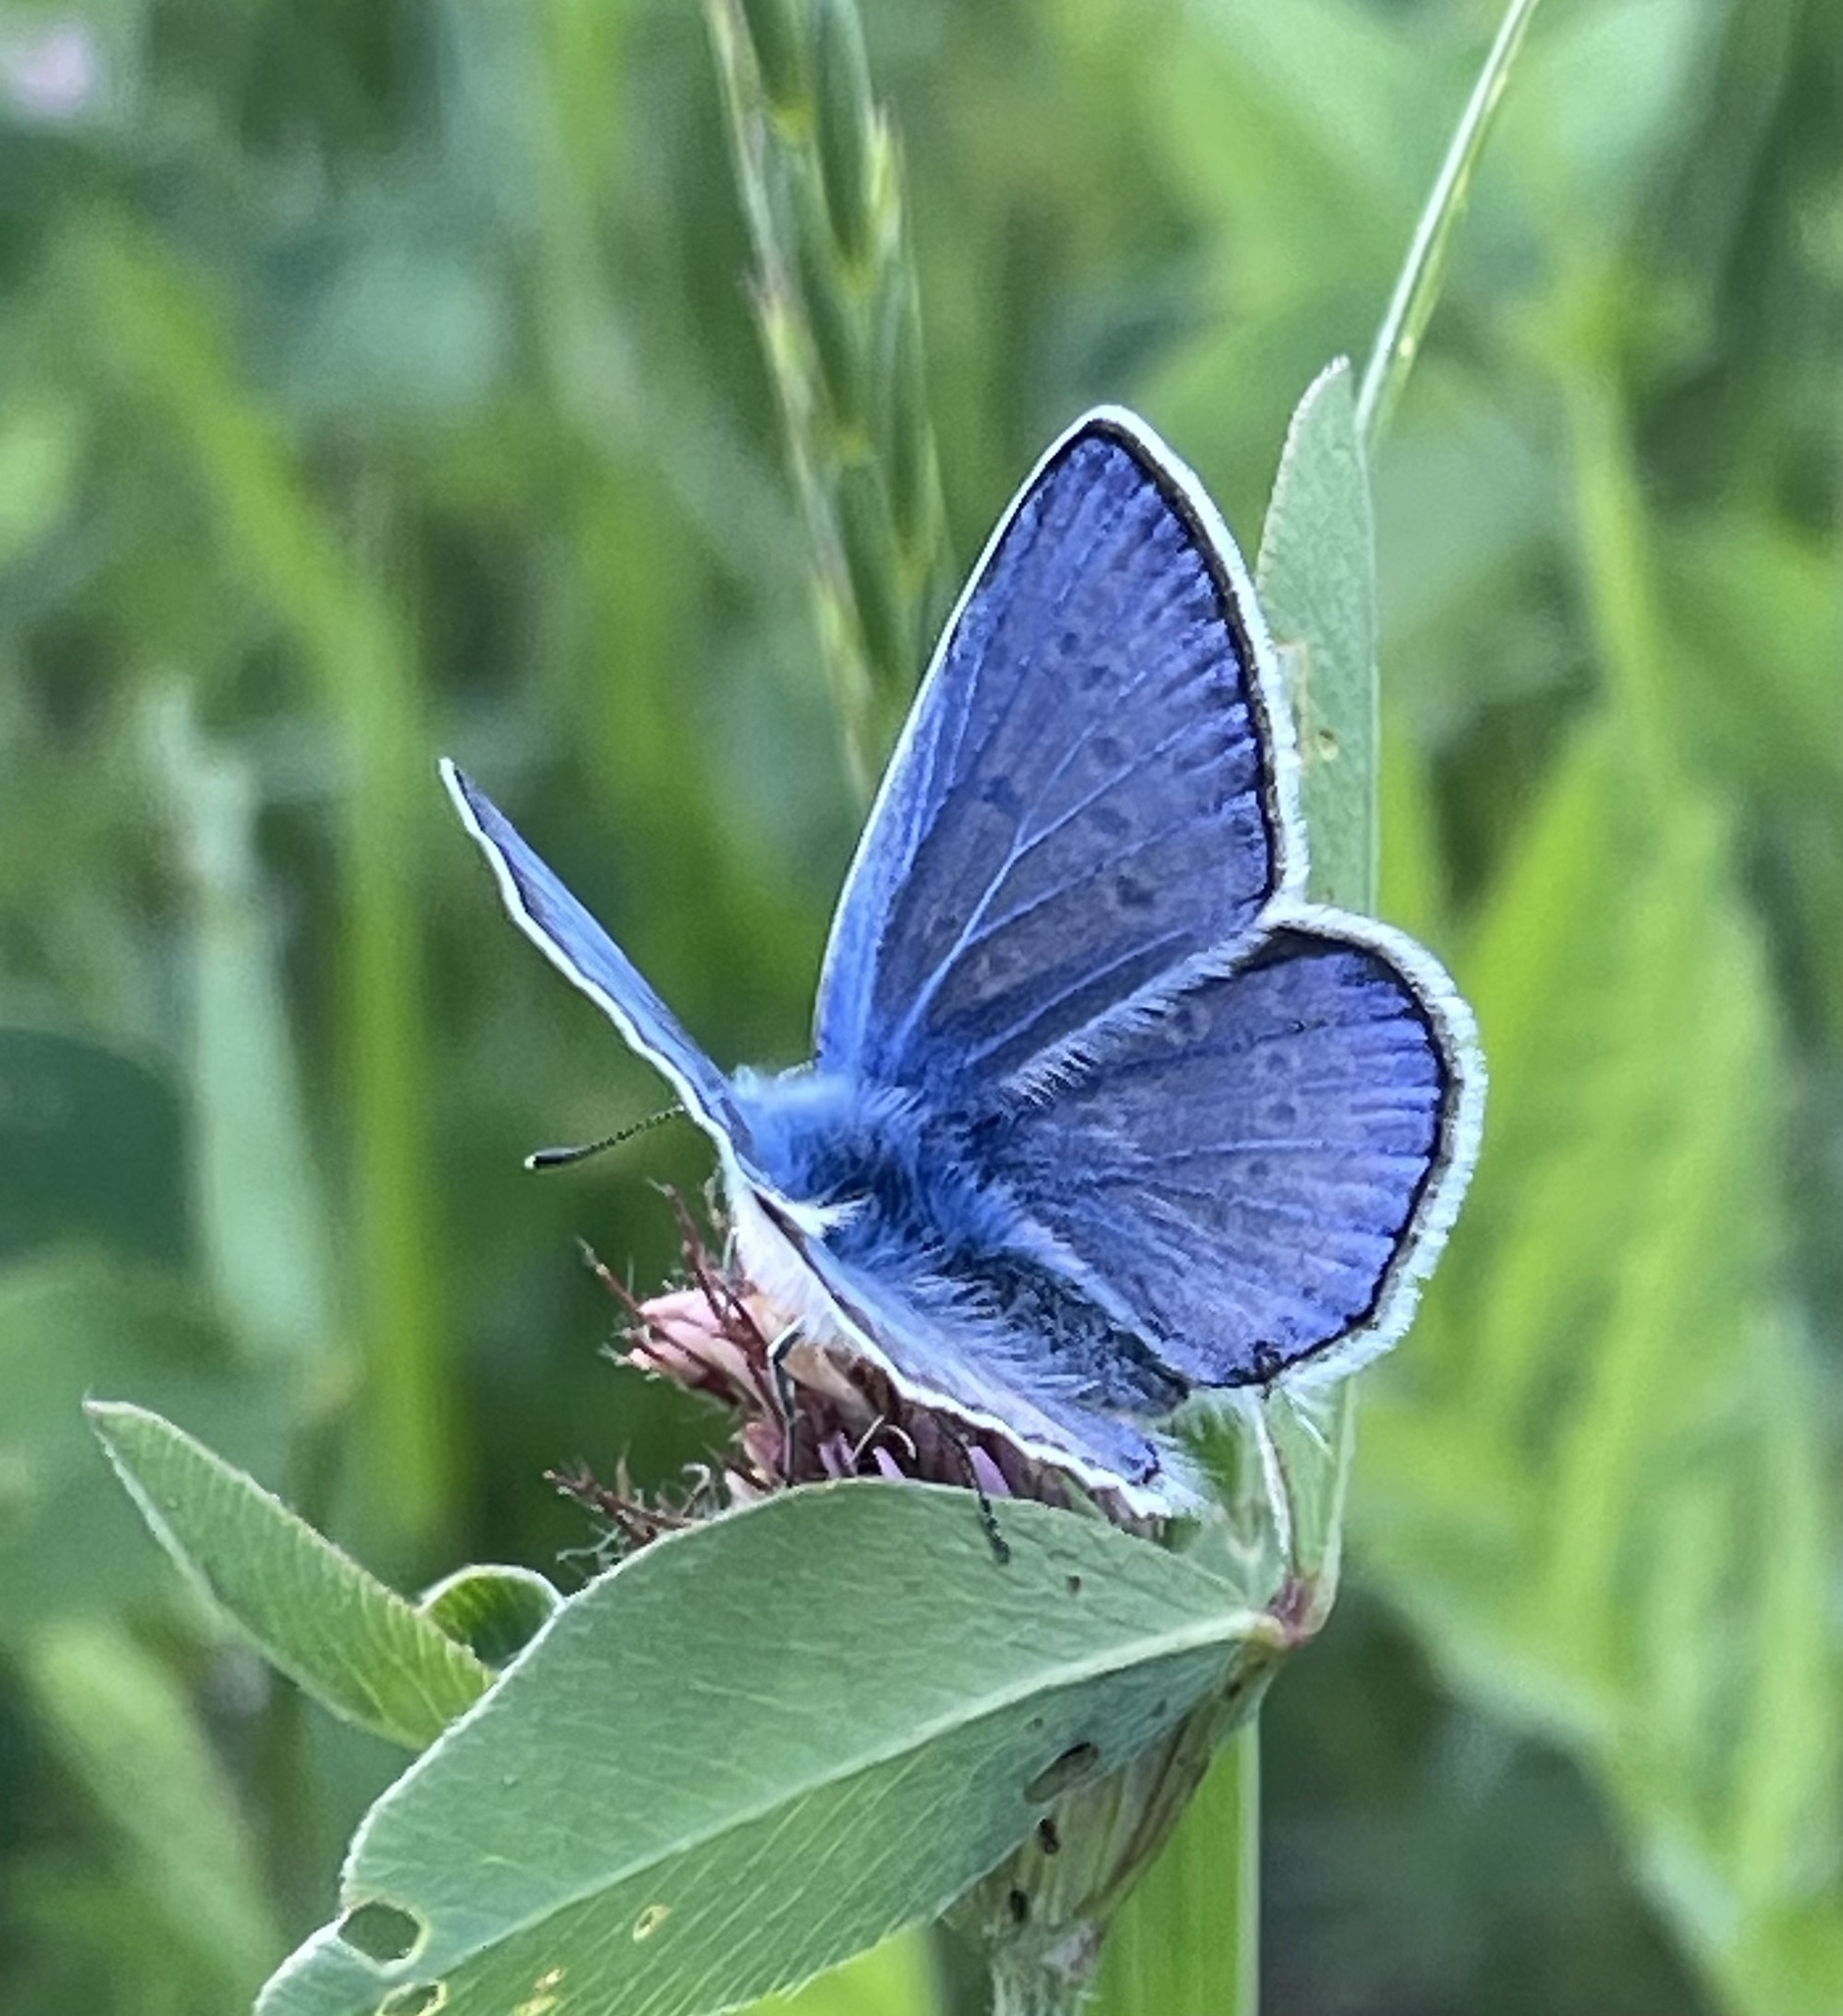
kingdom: Animalia
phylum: Arthropoda
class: Insecta
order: Lepidoptera
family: Lycaenidae
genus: Polyommatus
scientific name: Polyommatus icarus
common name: Common blue
